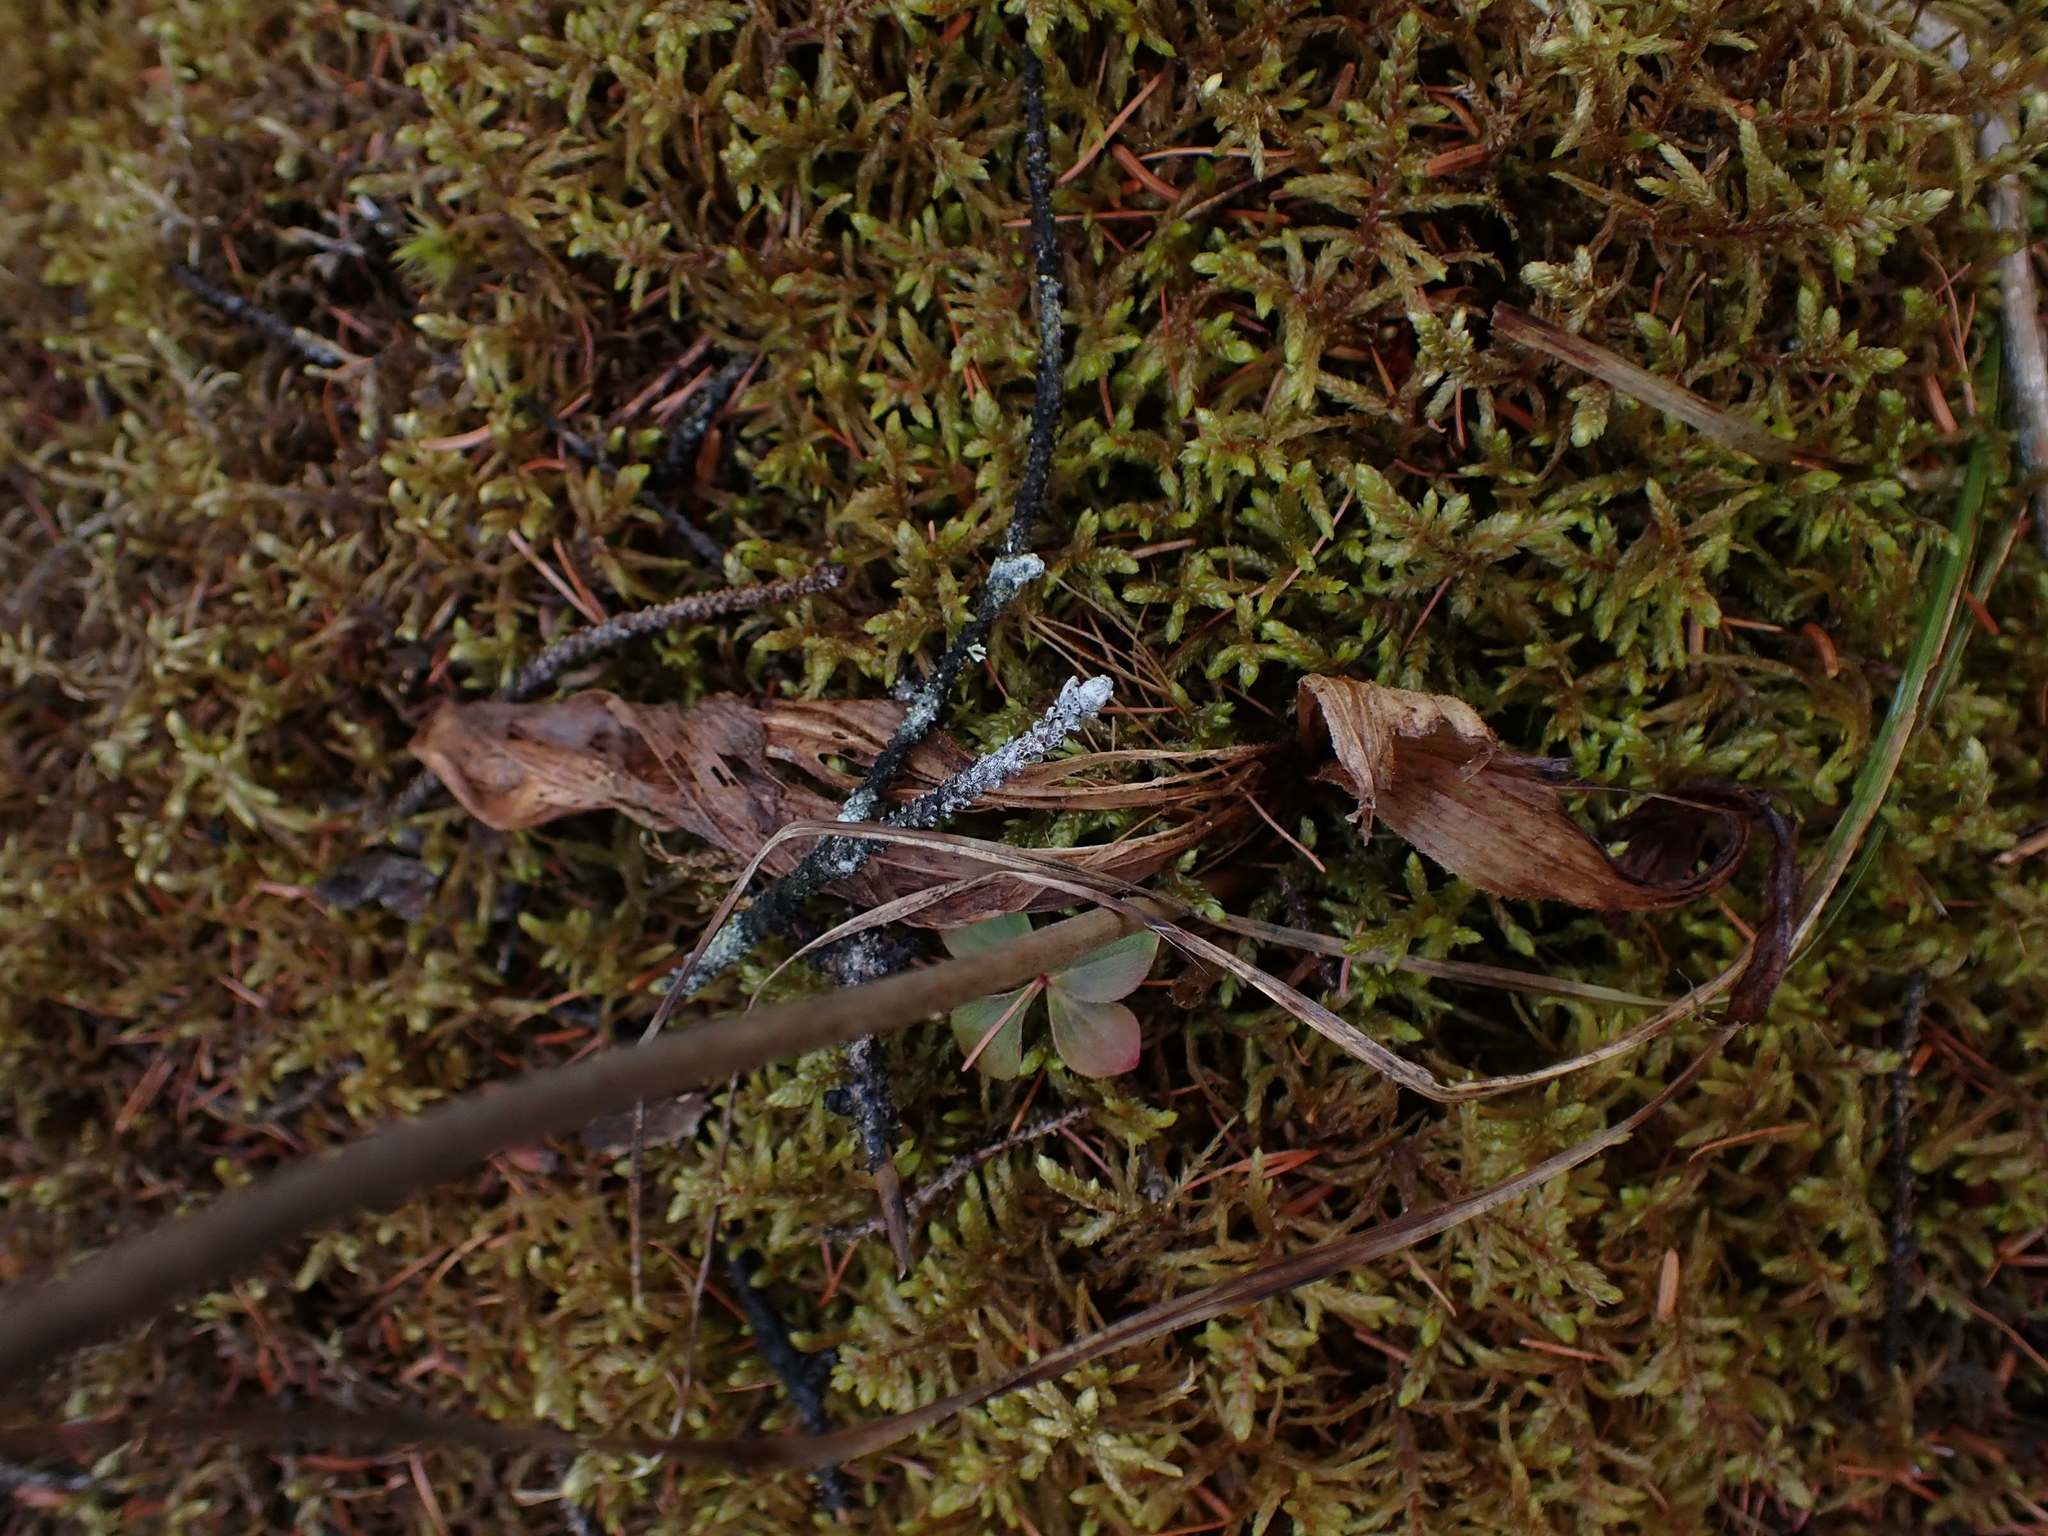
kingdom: Plantae
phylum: Tracheophyta
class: Liliopsida
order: Asparagales
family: Orchidaceae
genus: Cypripedium
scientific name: Cypripedium acaule
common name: Pink lady's-slipper
